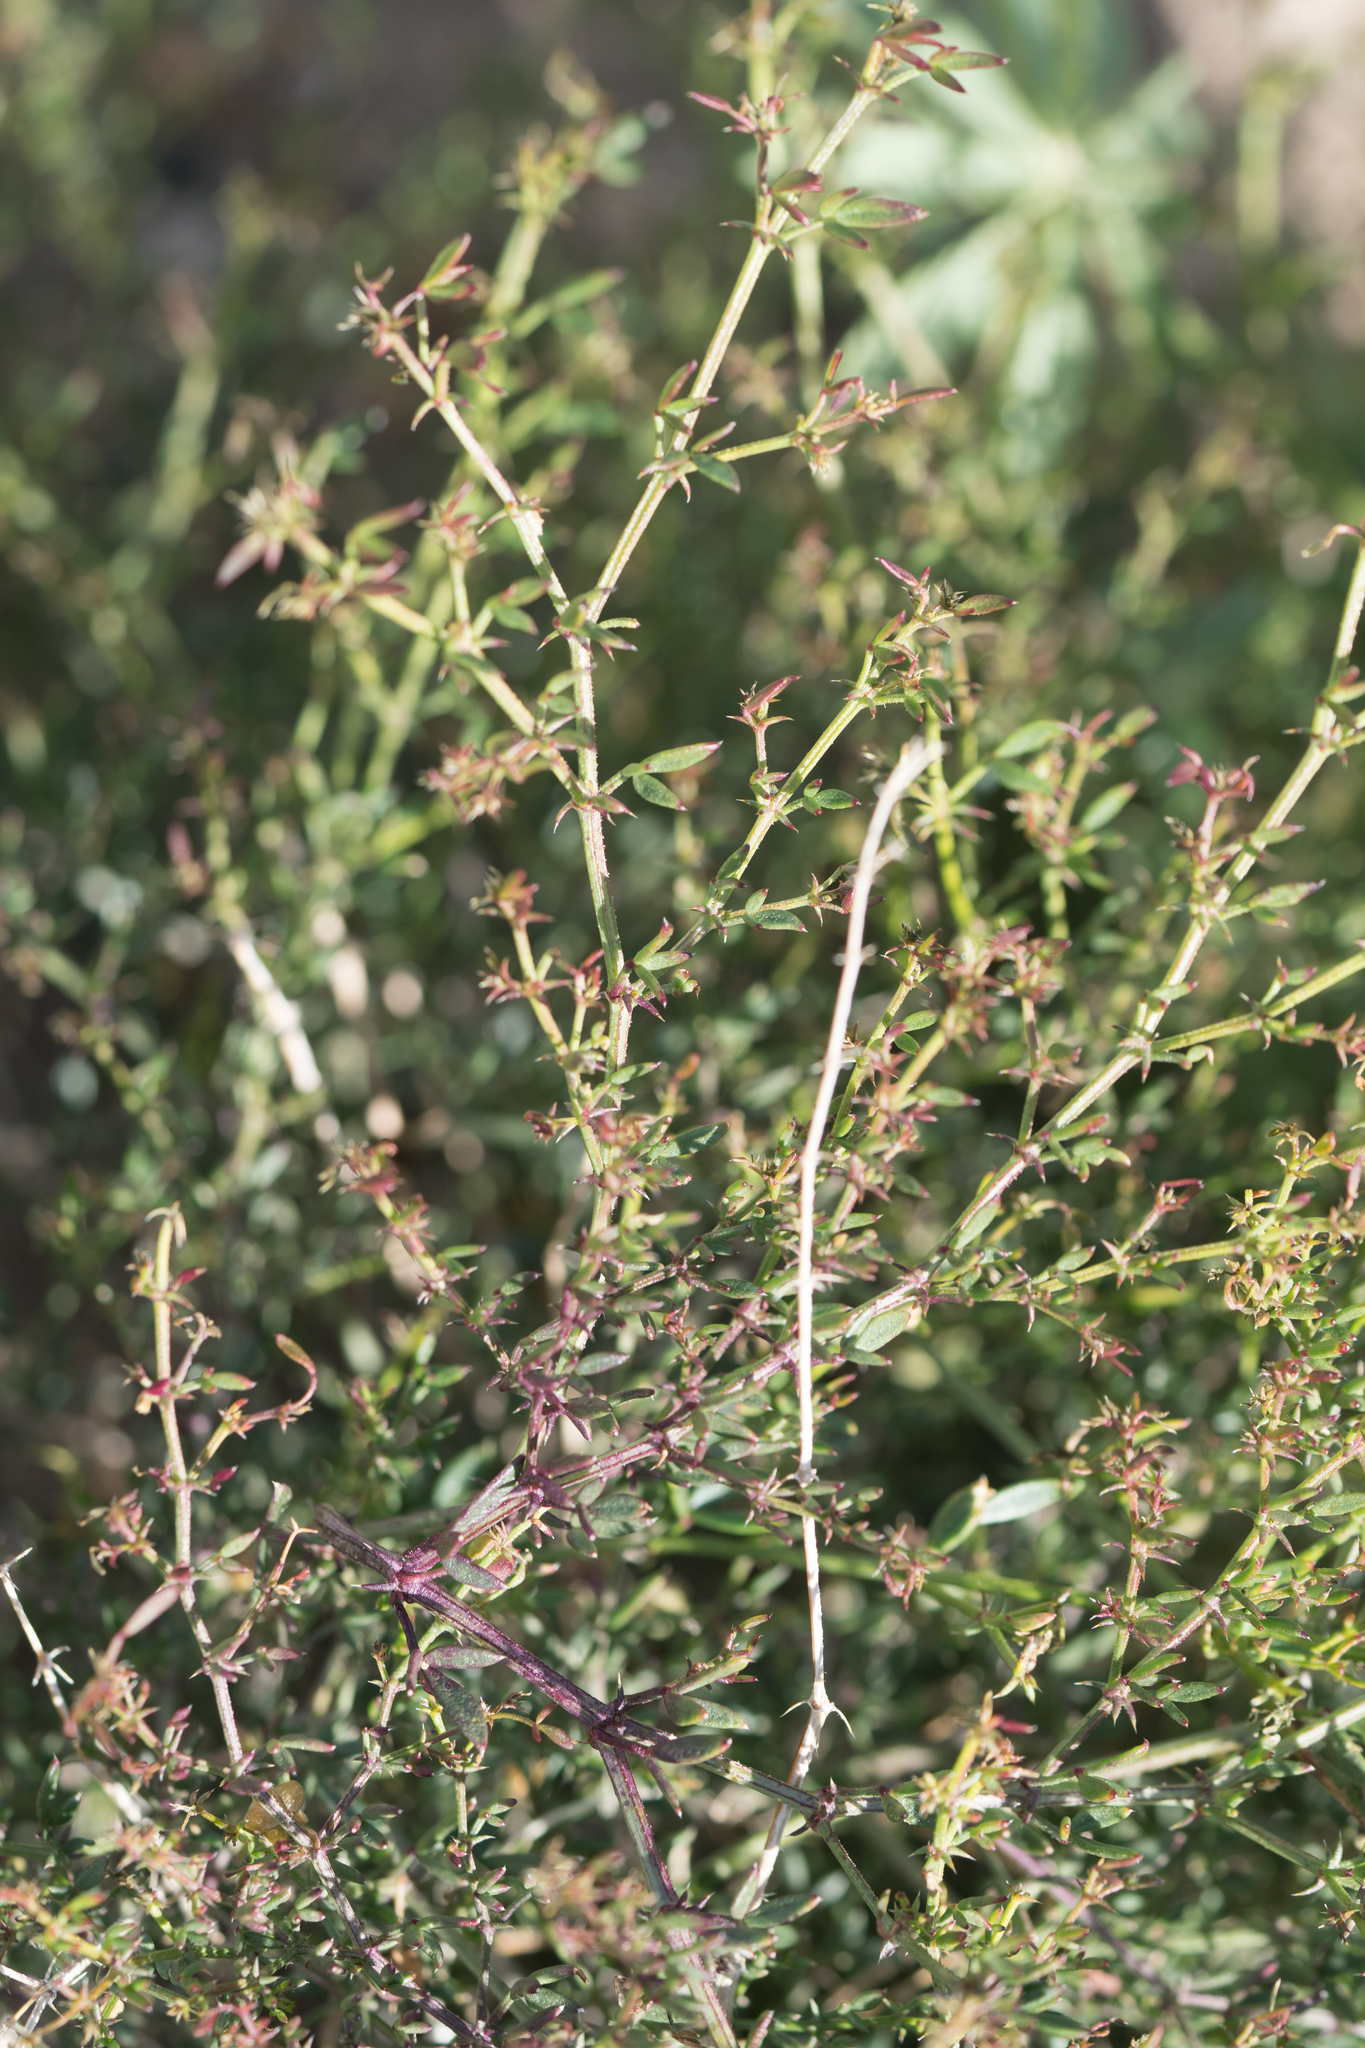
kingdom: Plantae
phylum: Tracheophyta
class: Magnoliopsida
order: Zygophyllales
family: Zygophyllaceae
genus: Fagonia
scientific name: Fagonia laevis
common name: California fagonbush
